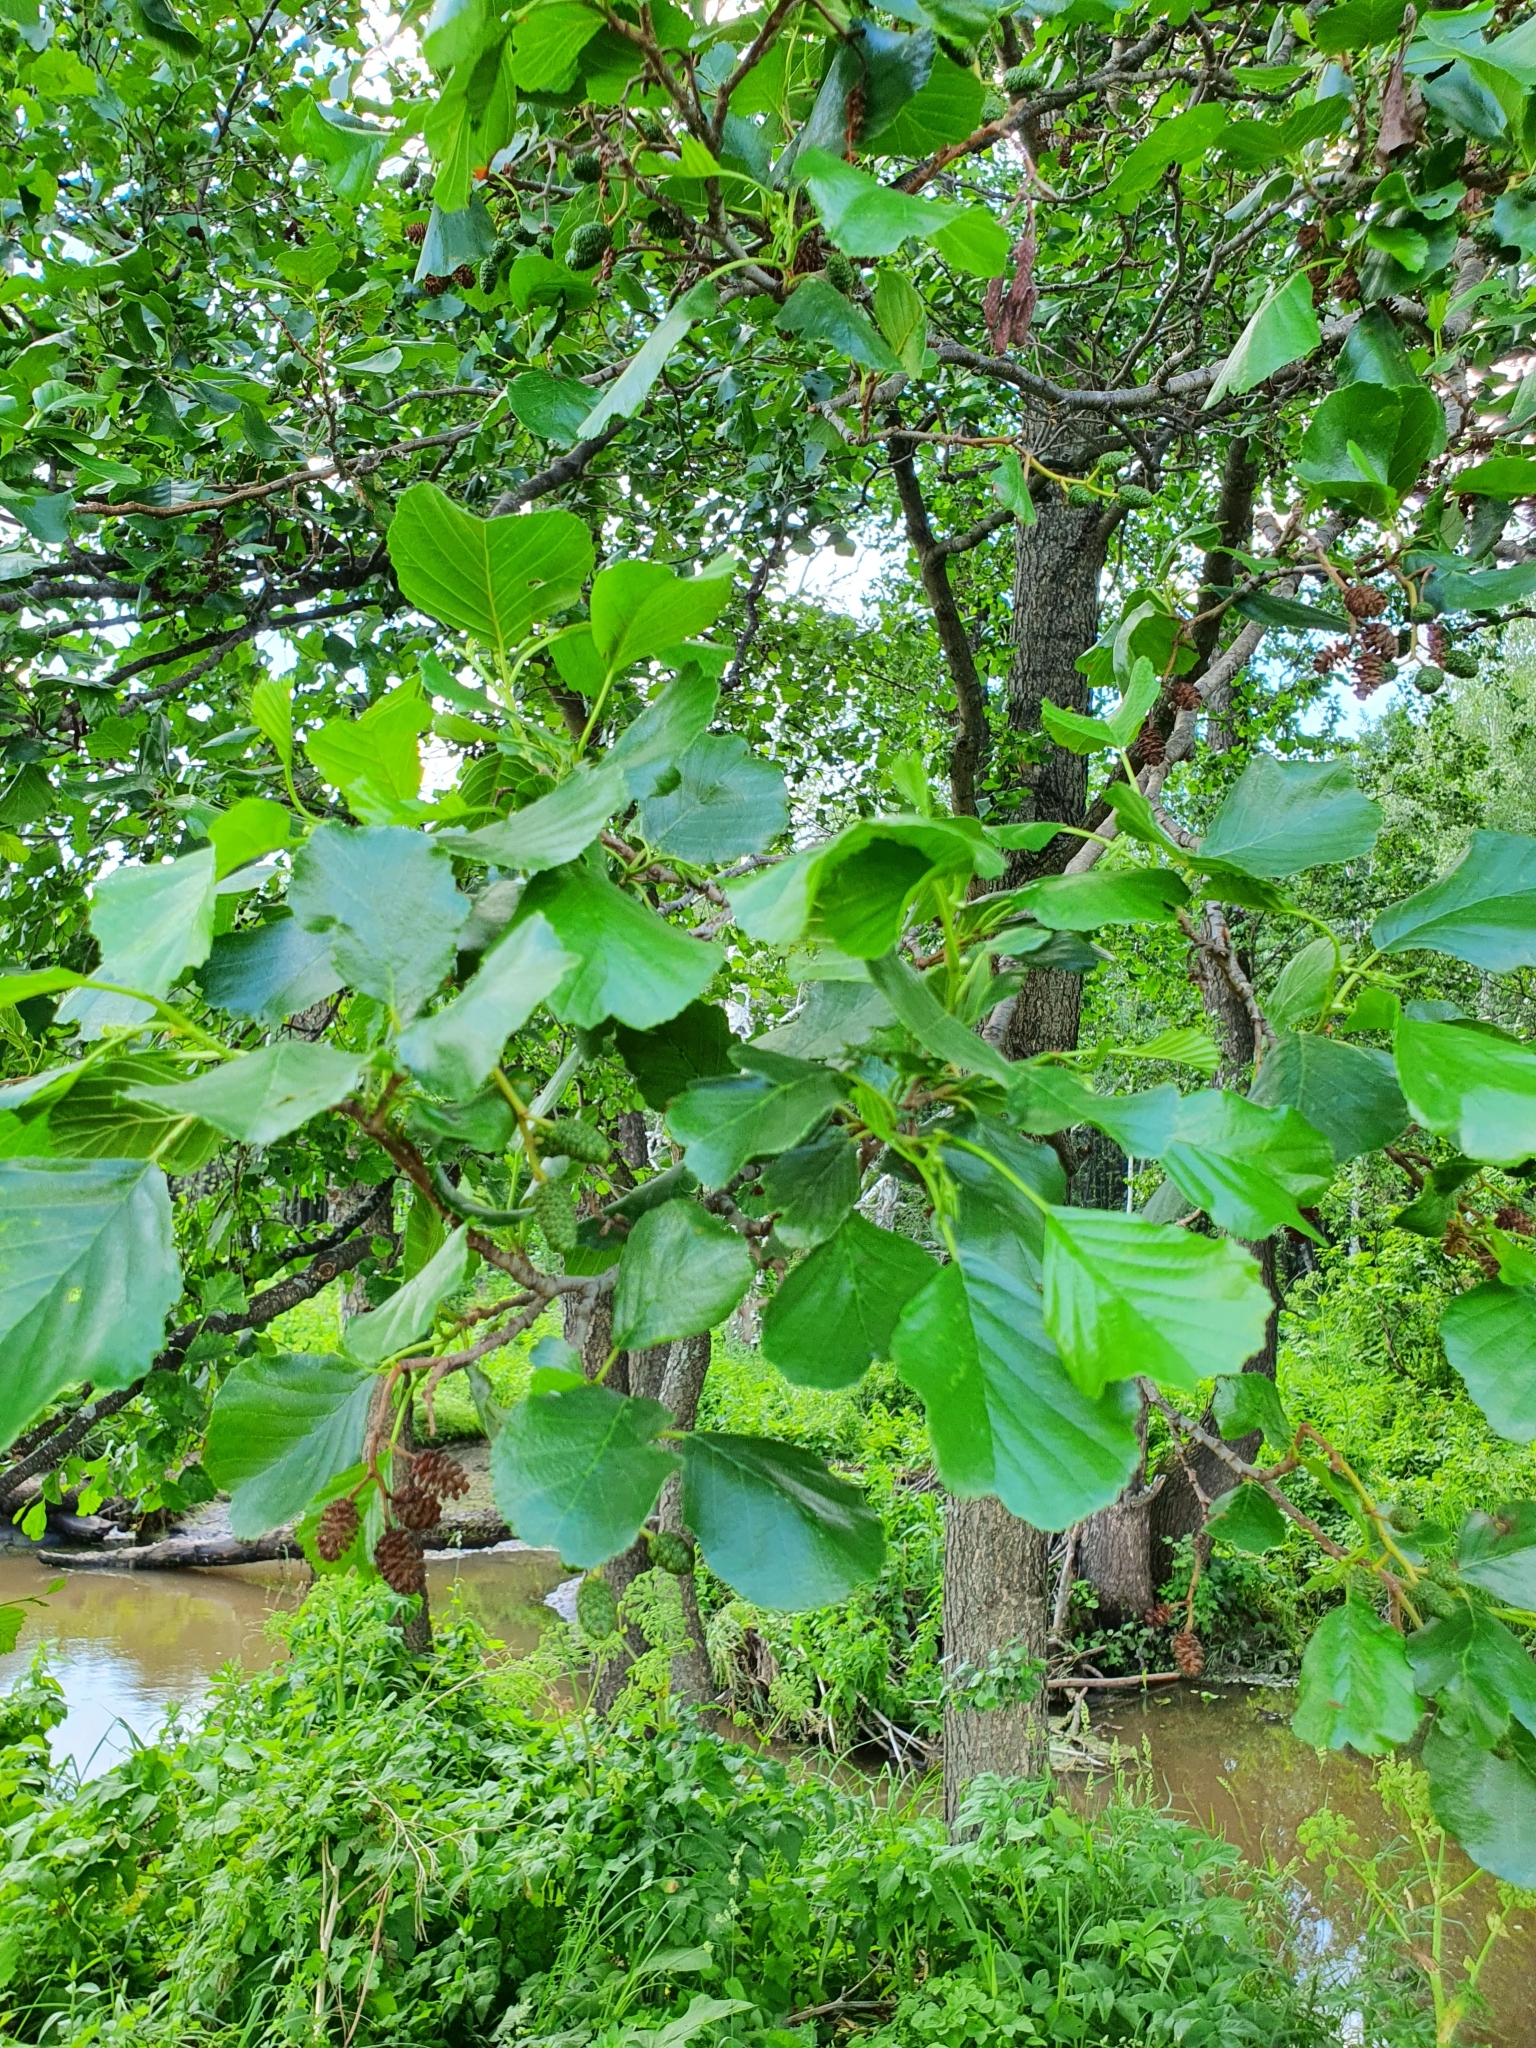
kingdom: Plantae
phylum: Tracheophyta
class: Magnoliopsida
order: Fagales
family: Betulaceae
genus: Alnus
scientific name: Alnus glutinosa
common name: Black alder
